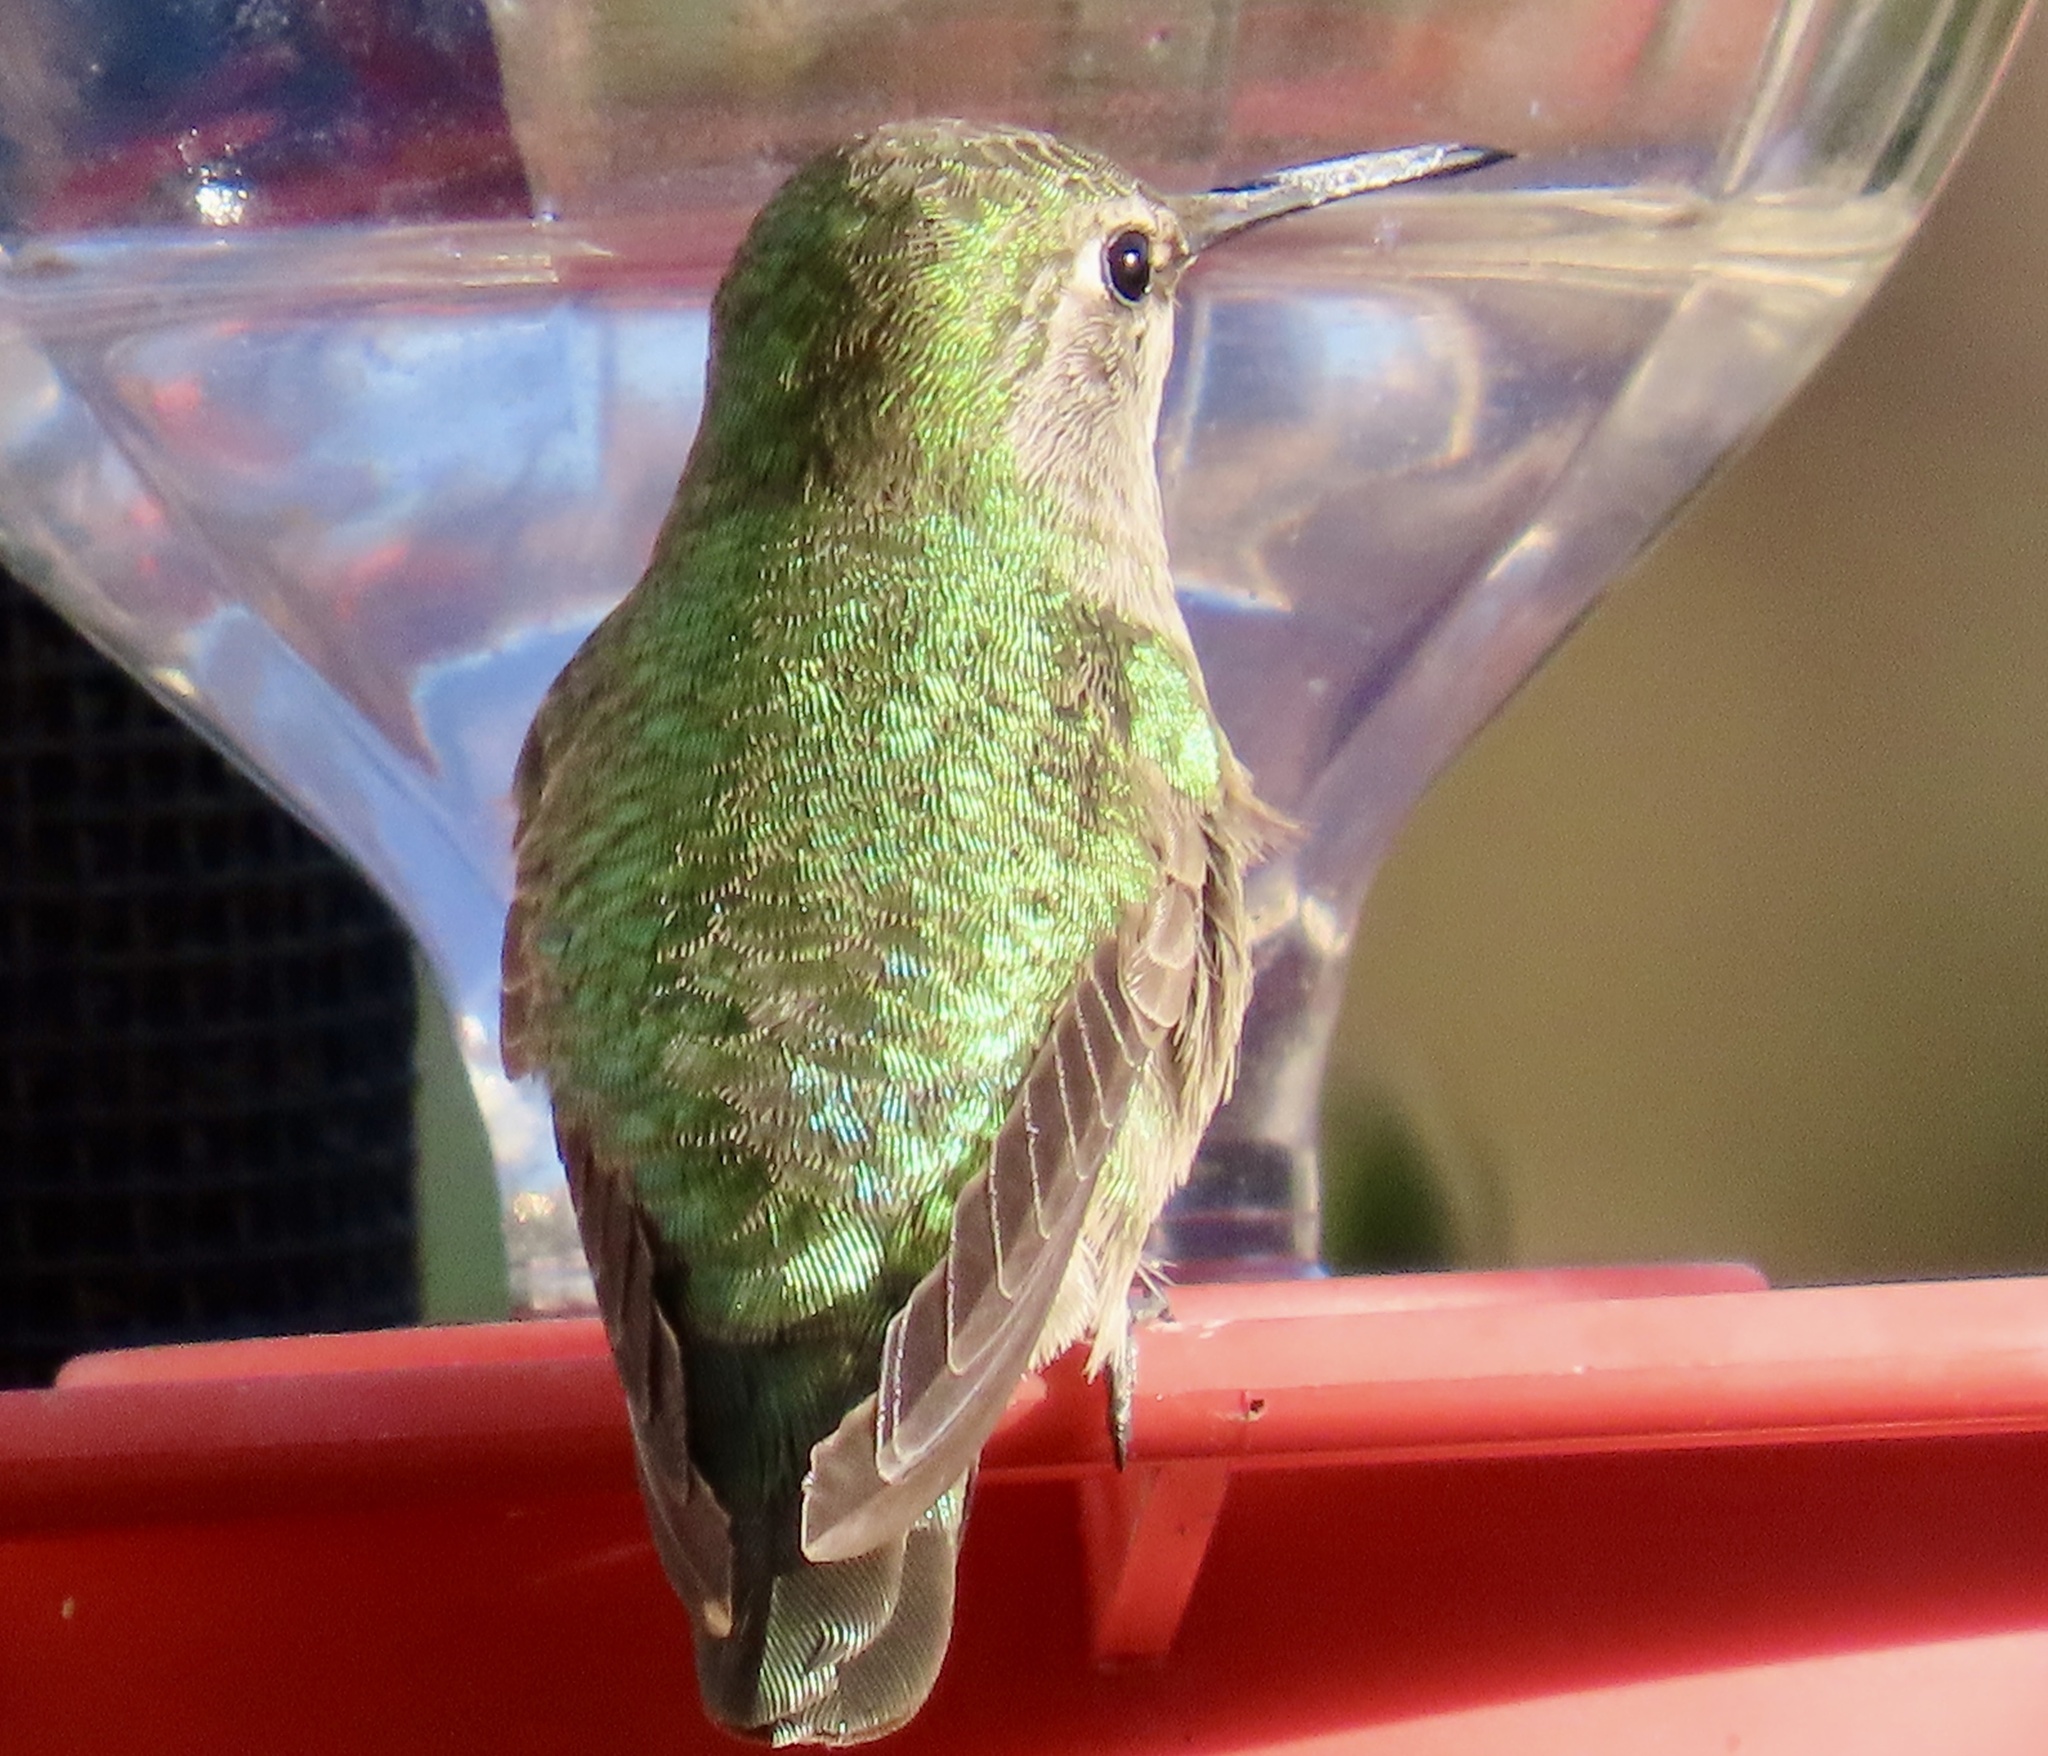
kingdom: Animalia
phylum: Chordata
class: Aves
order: Apodiformes
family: Trochilidae
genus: Calypte
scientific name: Calypte anna
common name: Anna's hummingbird
